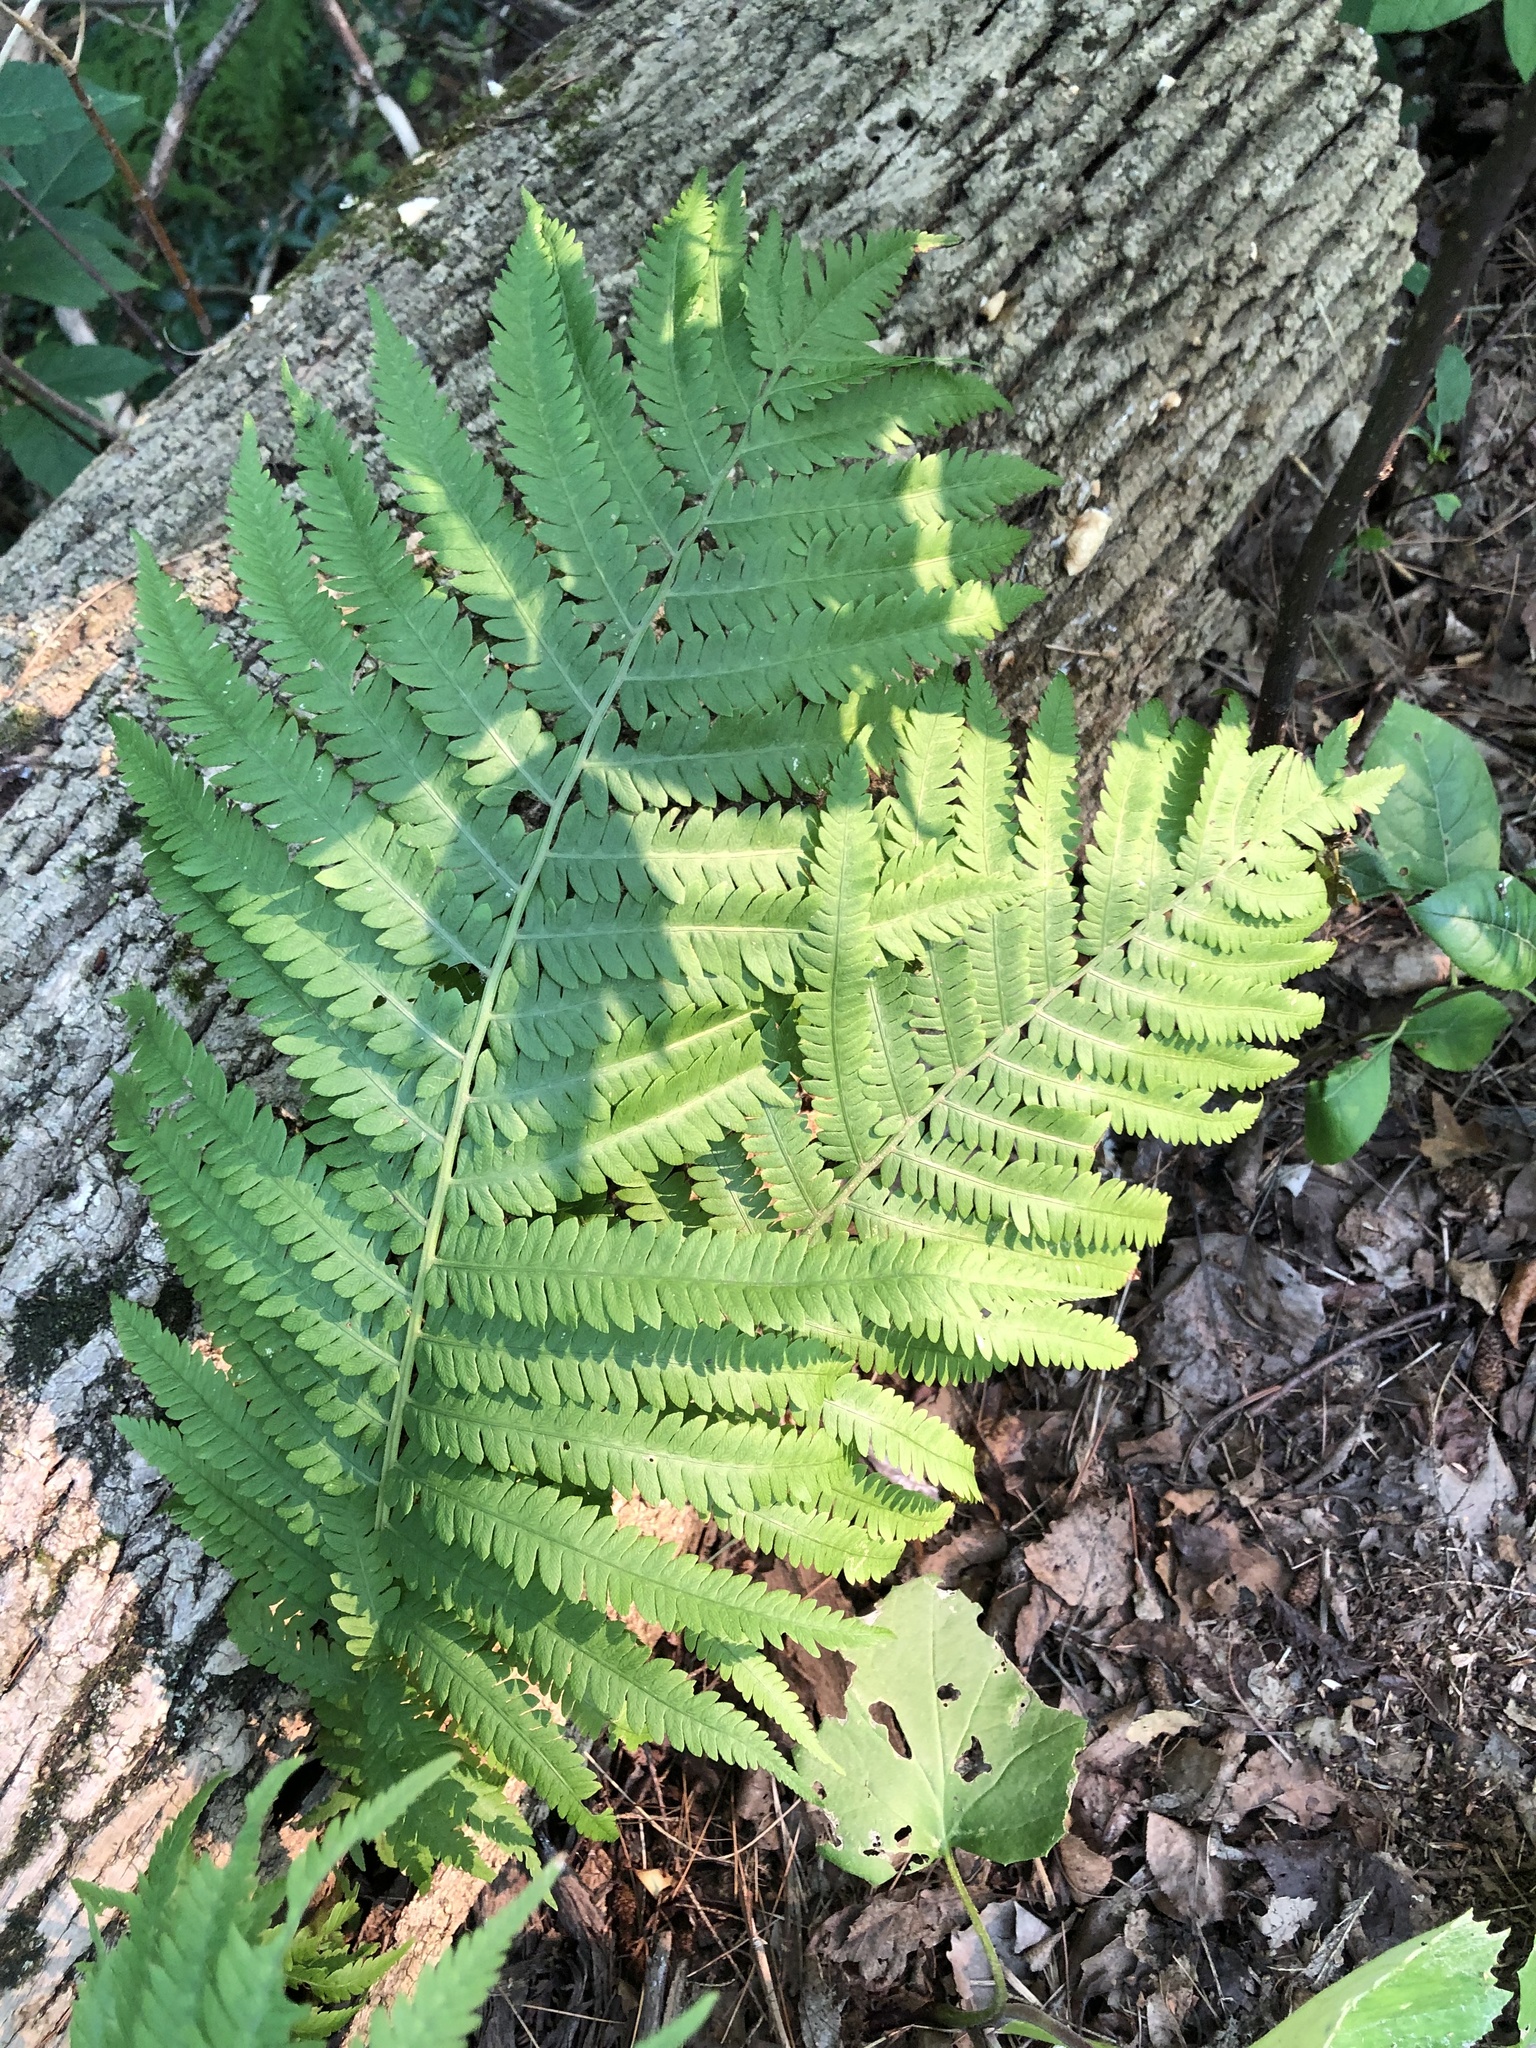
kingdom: Plantae
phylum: Tracheophyta
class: Polypodiopsida
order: Polypodiales
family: Onocleaceae
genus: Matteuccia
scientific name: Matteuccia struthiopteris
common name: Ostrich fern
